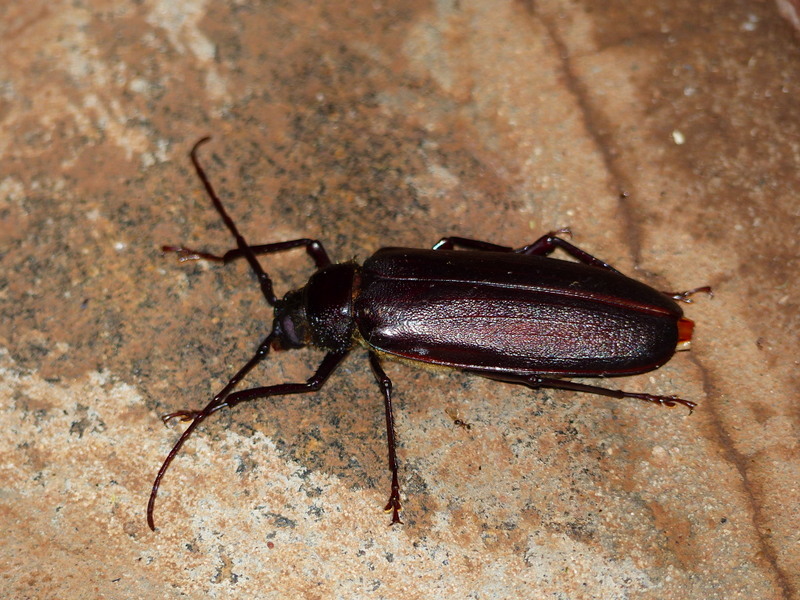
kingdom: Animalia
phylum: Arthropoda
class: Insecta
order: Coleoptera
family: Cerambycidae
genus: Macrotoma
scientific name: Macrotoma palmata
